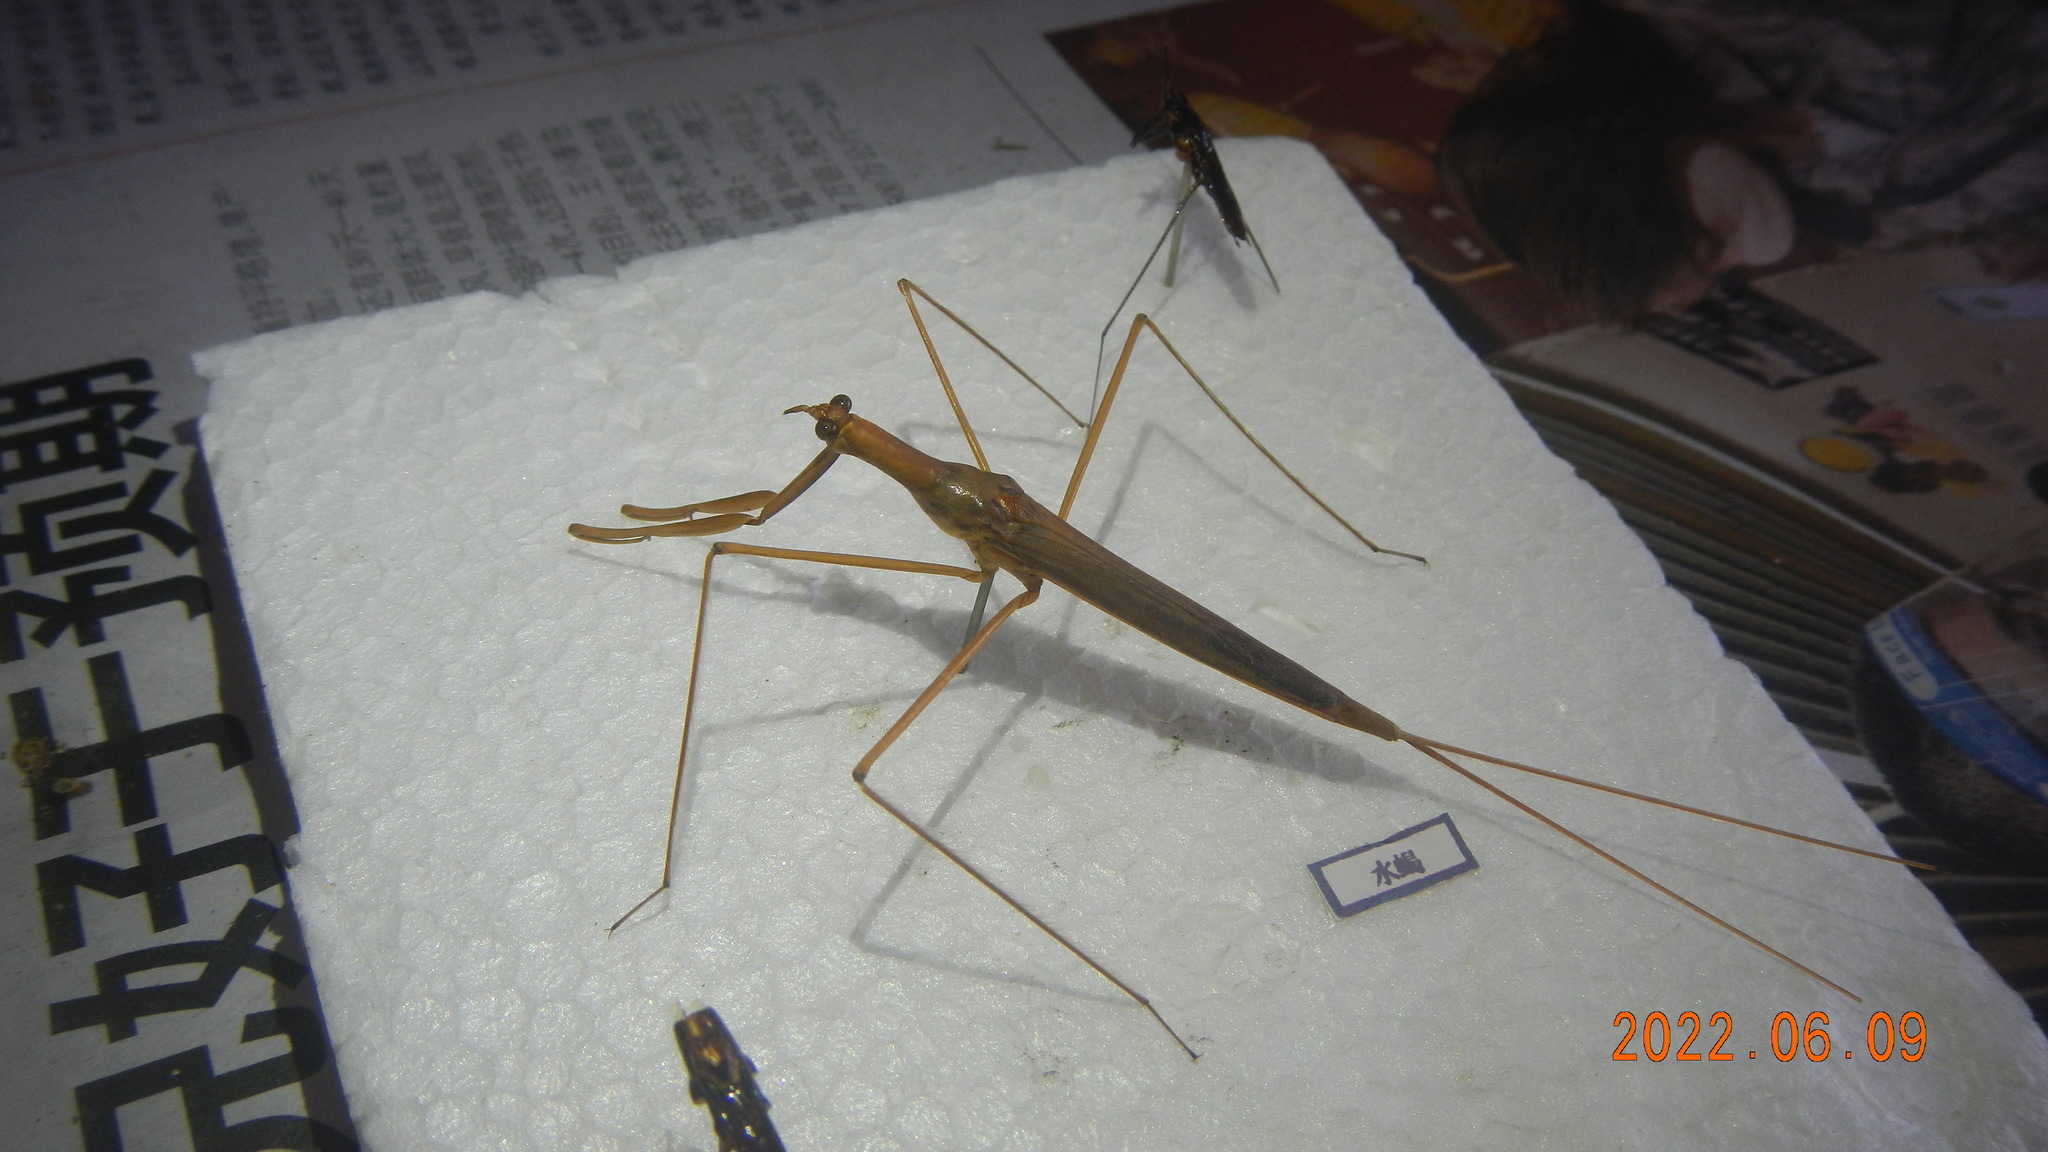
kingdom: Animalia
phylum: Arthropoda
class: Insecta
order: Hemiptera
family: Nepidae
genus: Ranatra
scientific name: Ranatra chinensis
